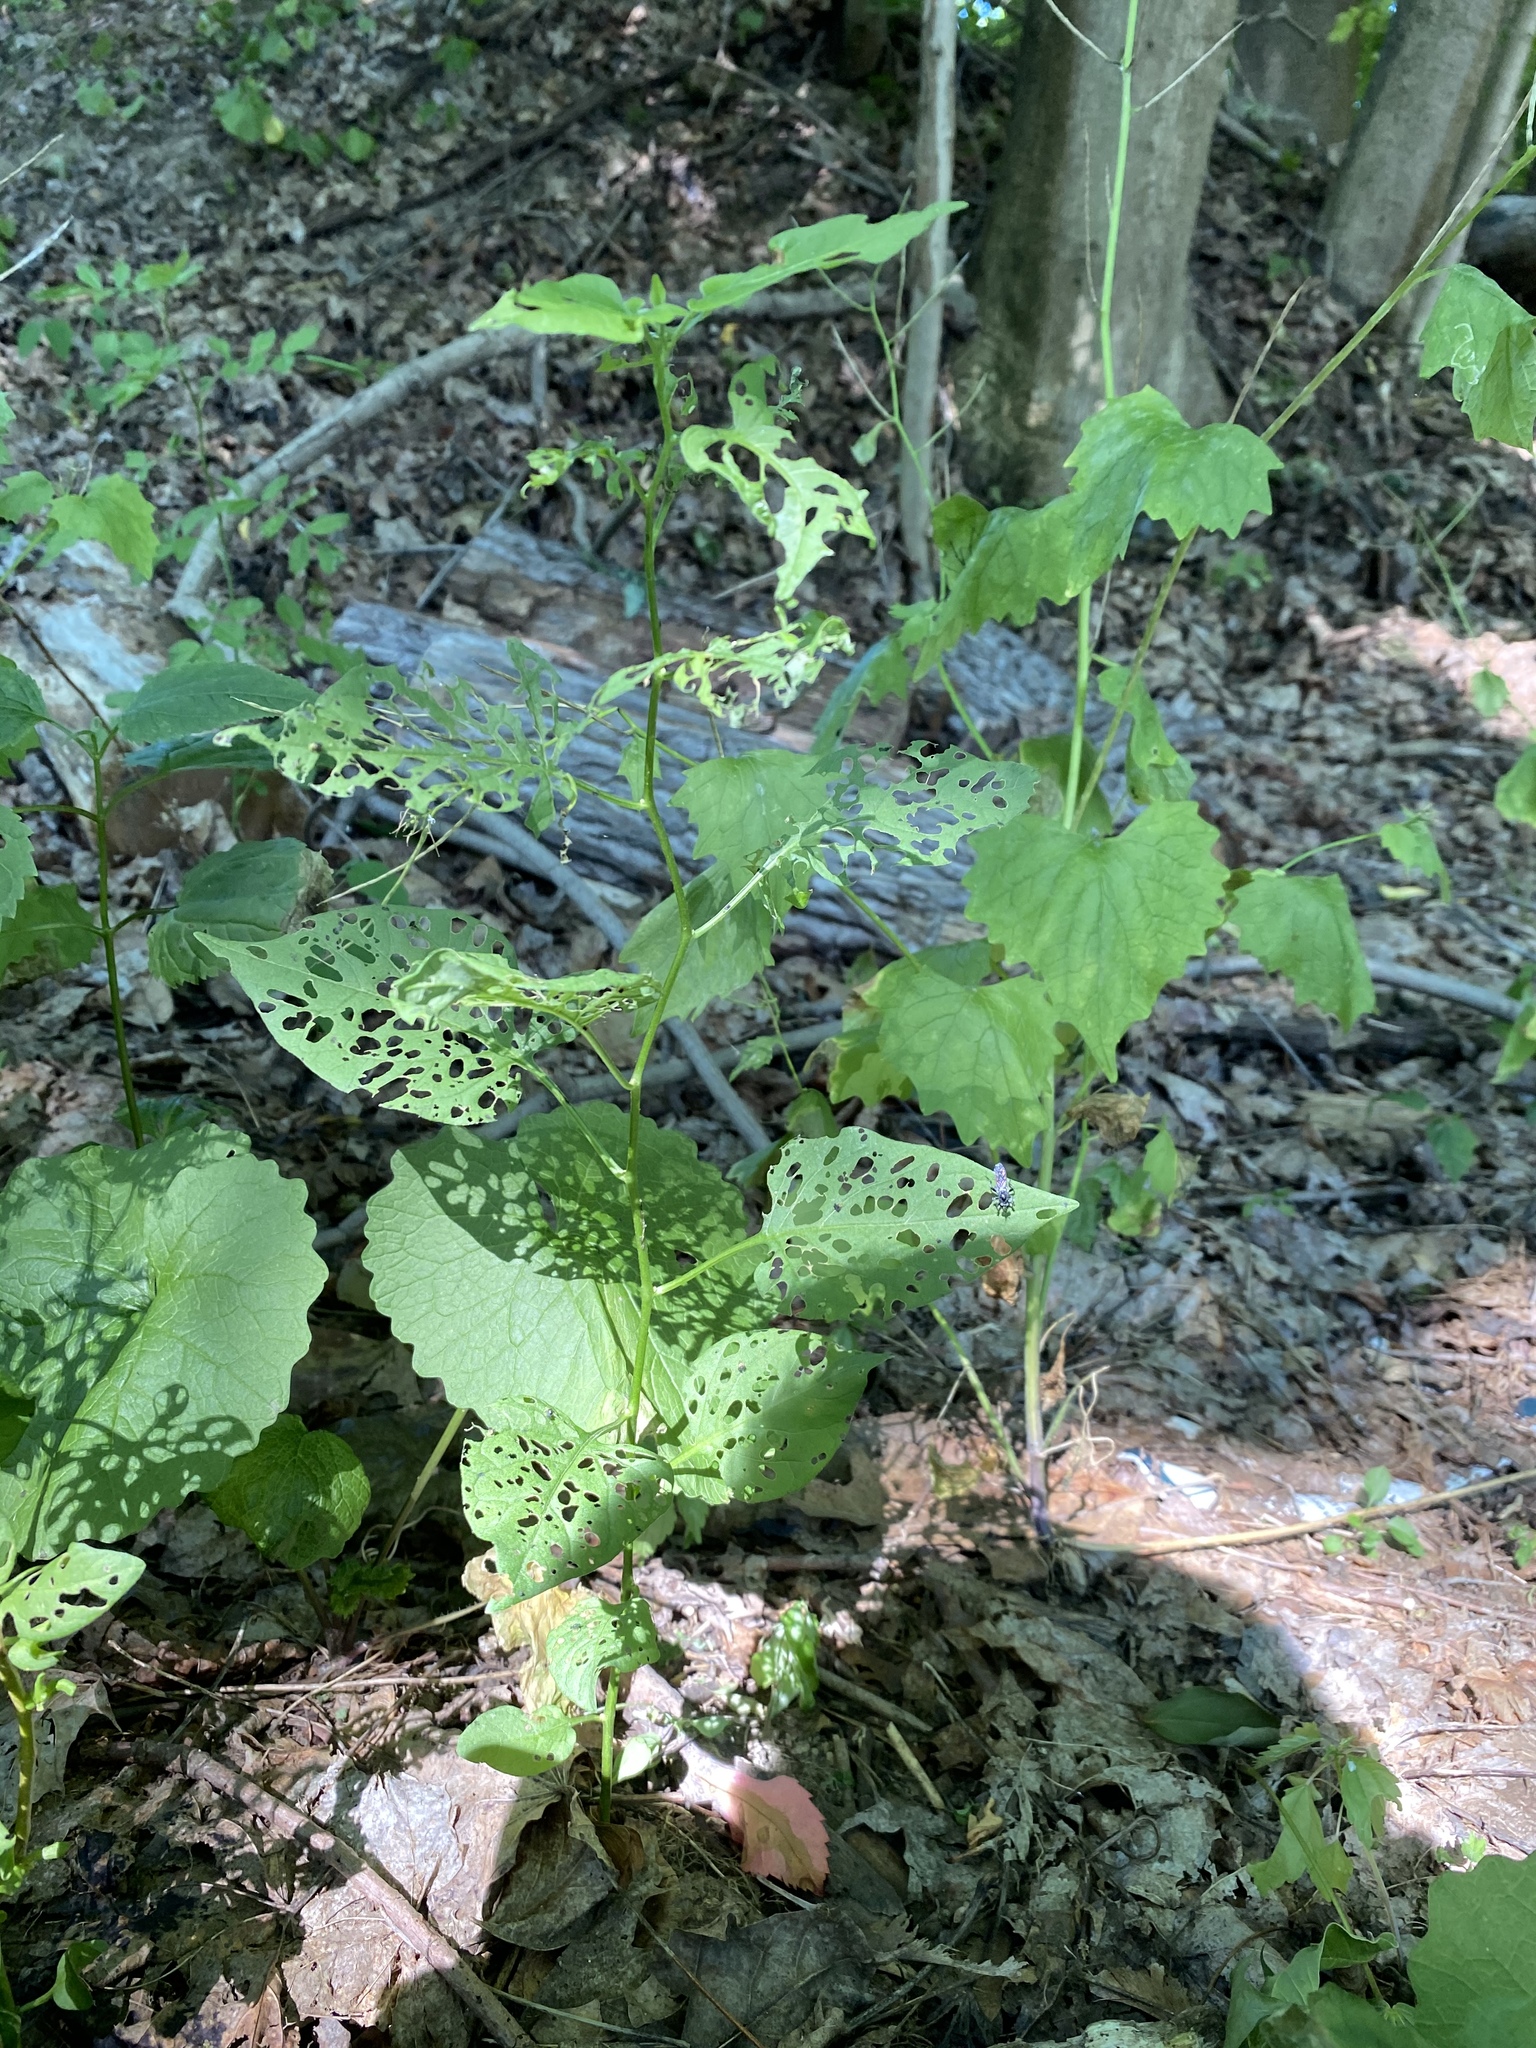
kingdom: Plantae
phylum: Tracheophyta
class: Magnoliopsida
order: Solanales
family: Solanaceae
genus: Solanum
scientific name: Solanum dulcamara
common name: Climbing nightshade
